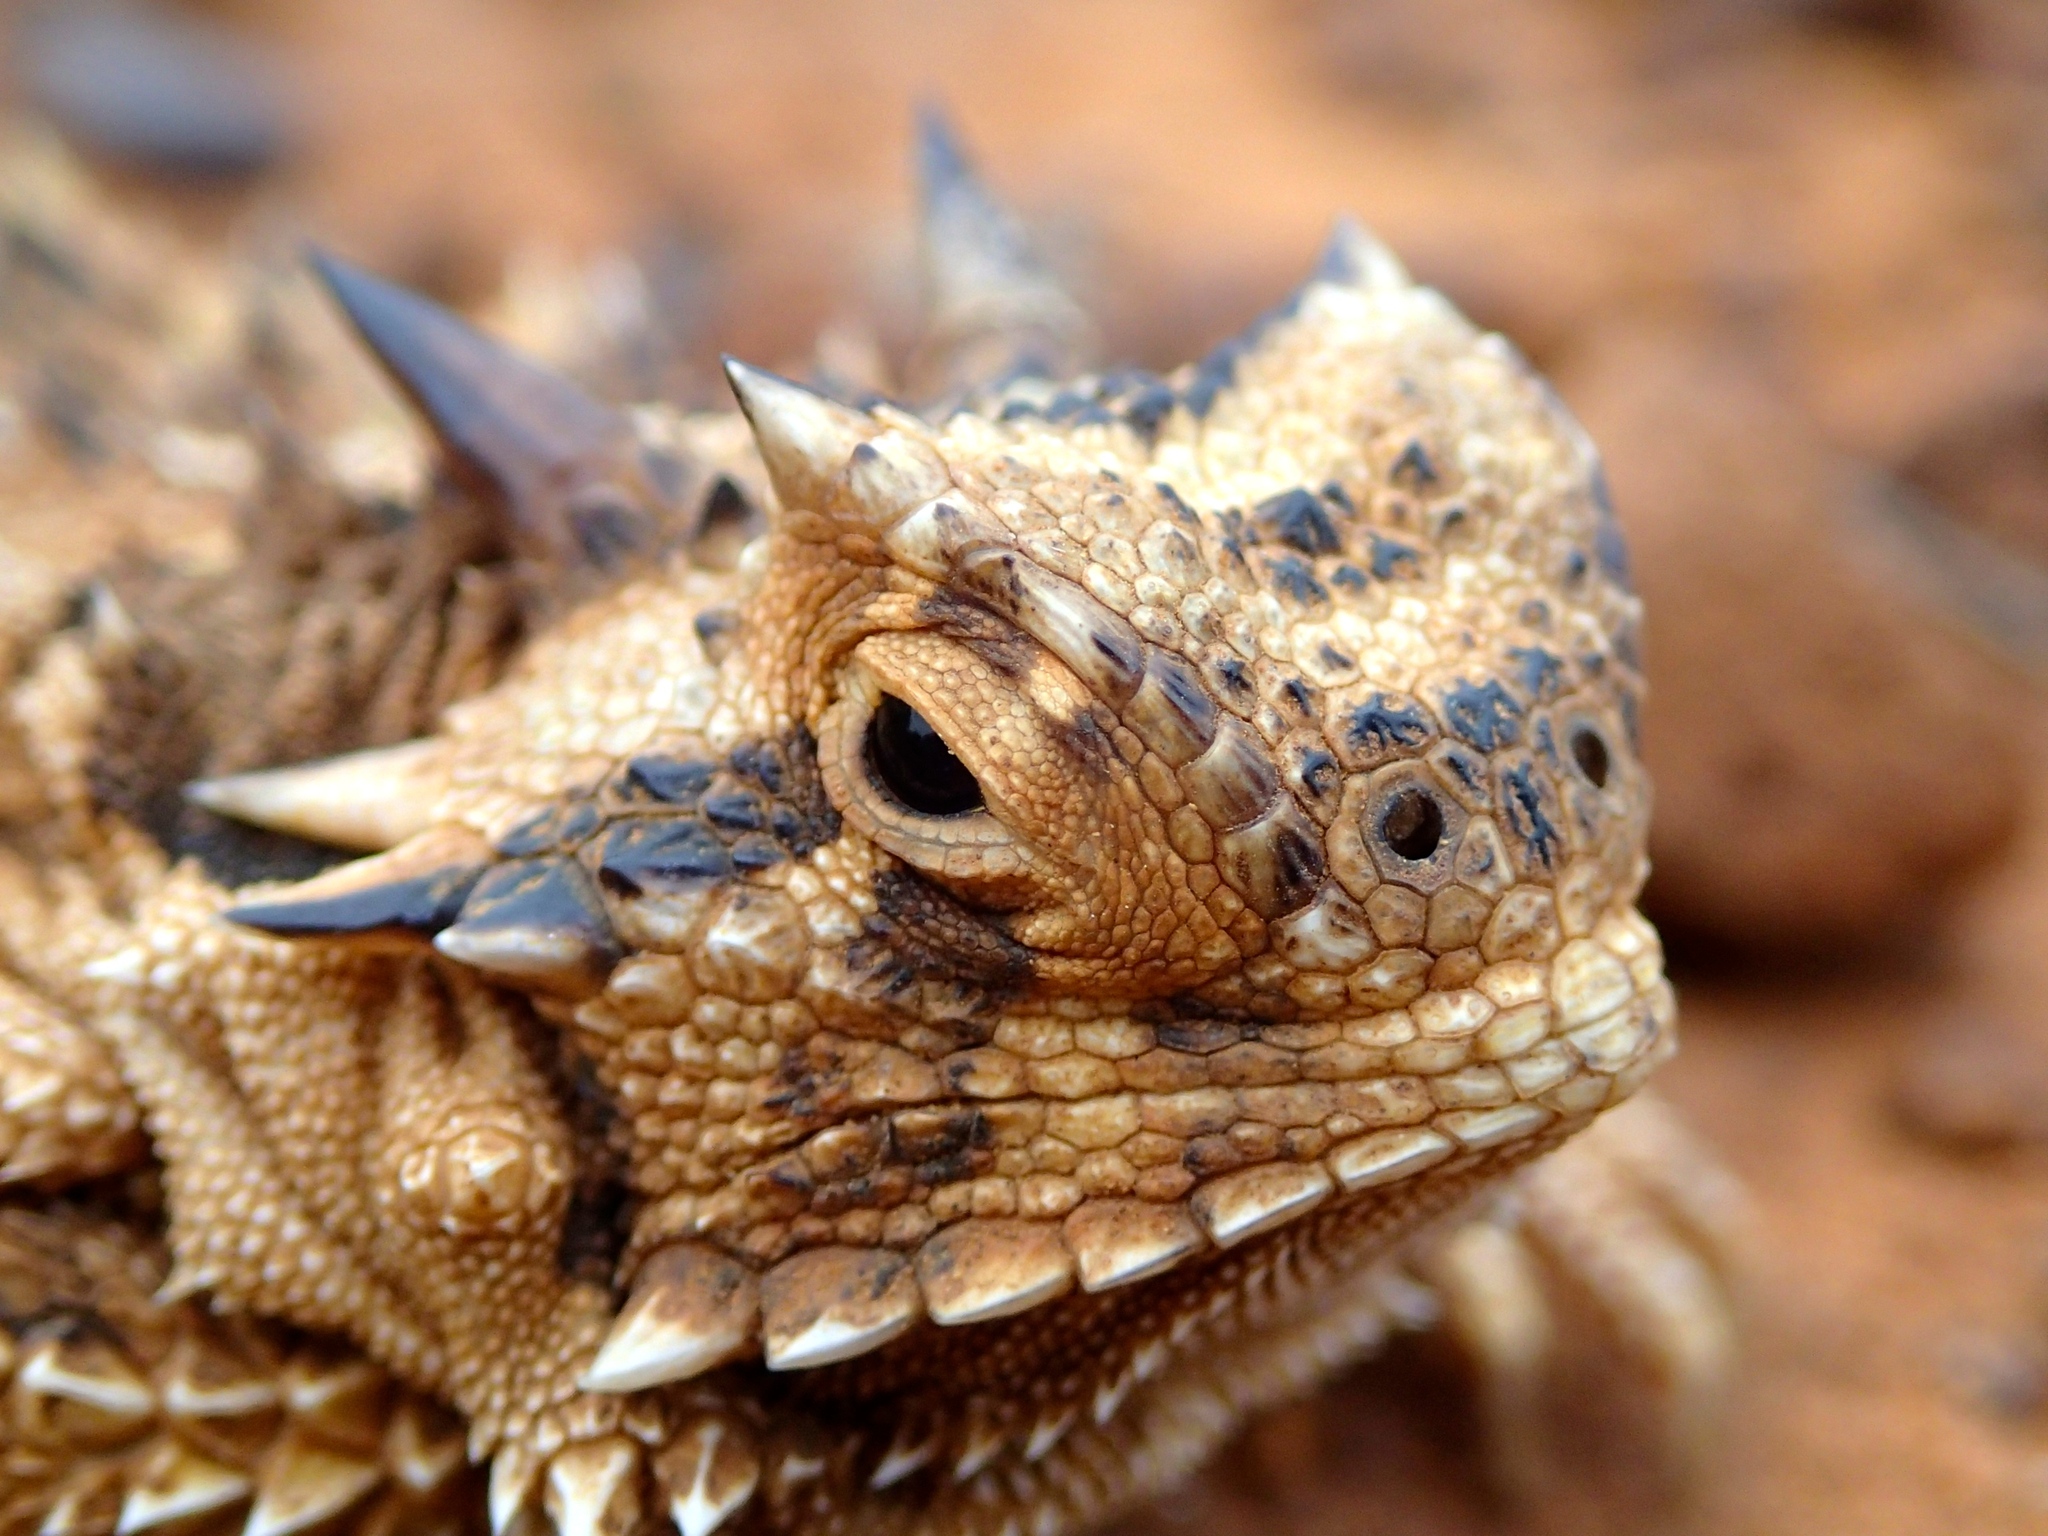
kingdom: Animalia
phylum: Chordata
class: Squamata
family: Phrynosomatidae
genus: Phrynosoma
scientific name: Phrynosoma cornutum
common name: Texas horned lizard
